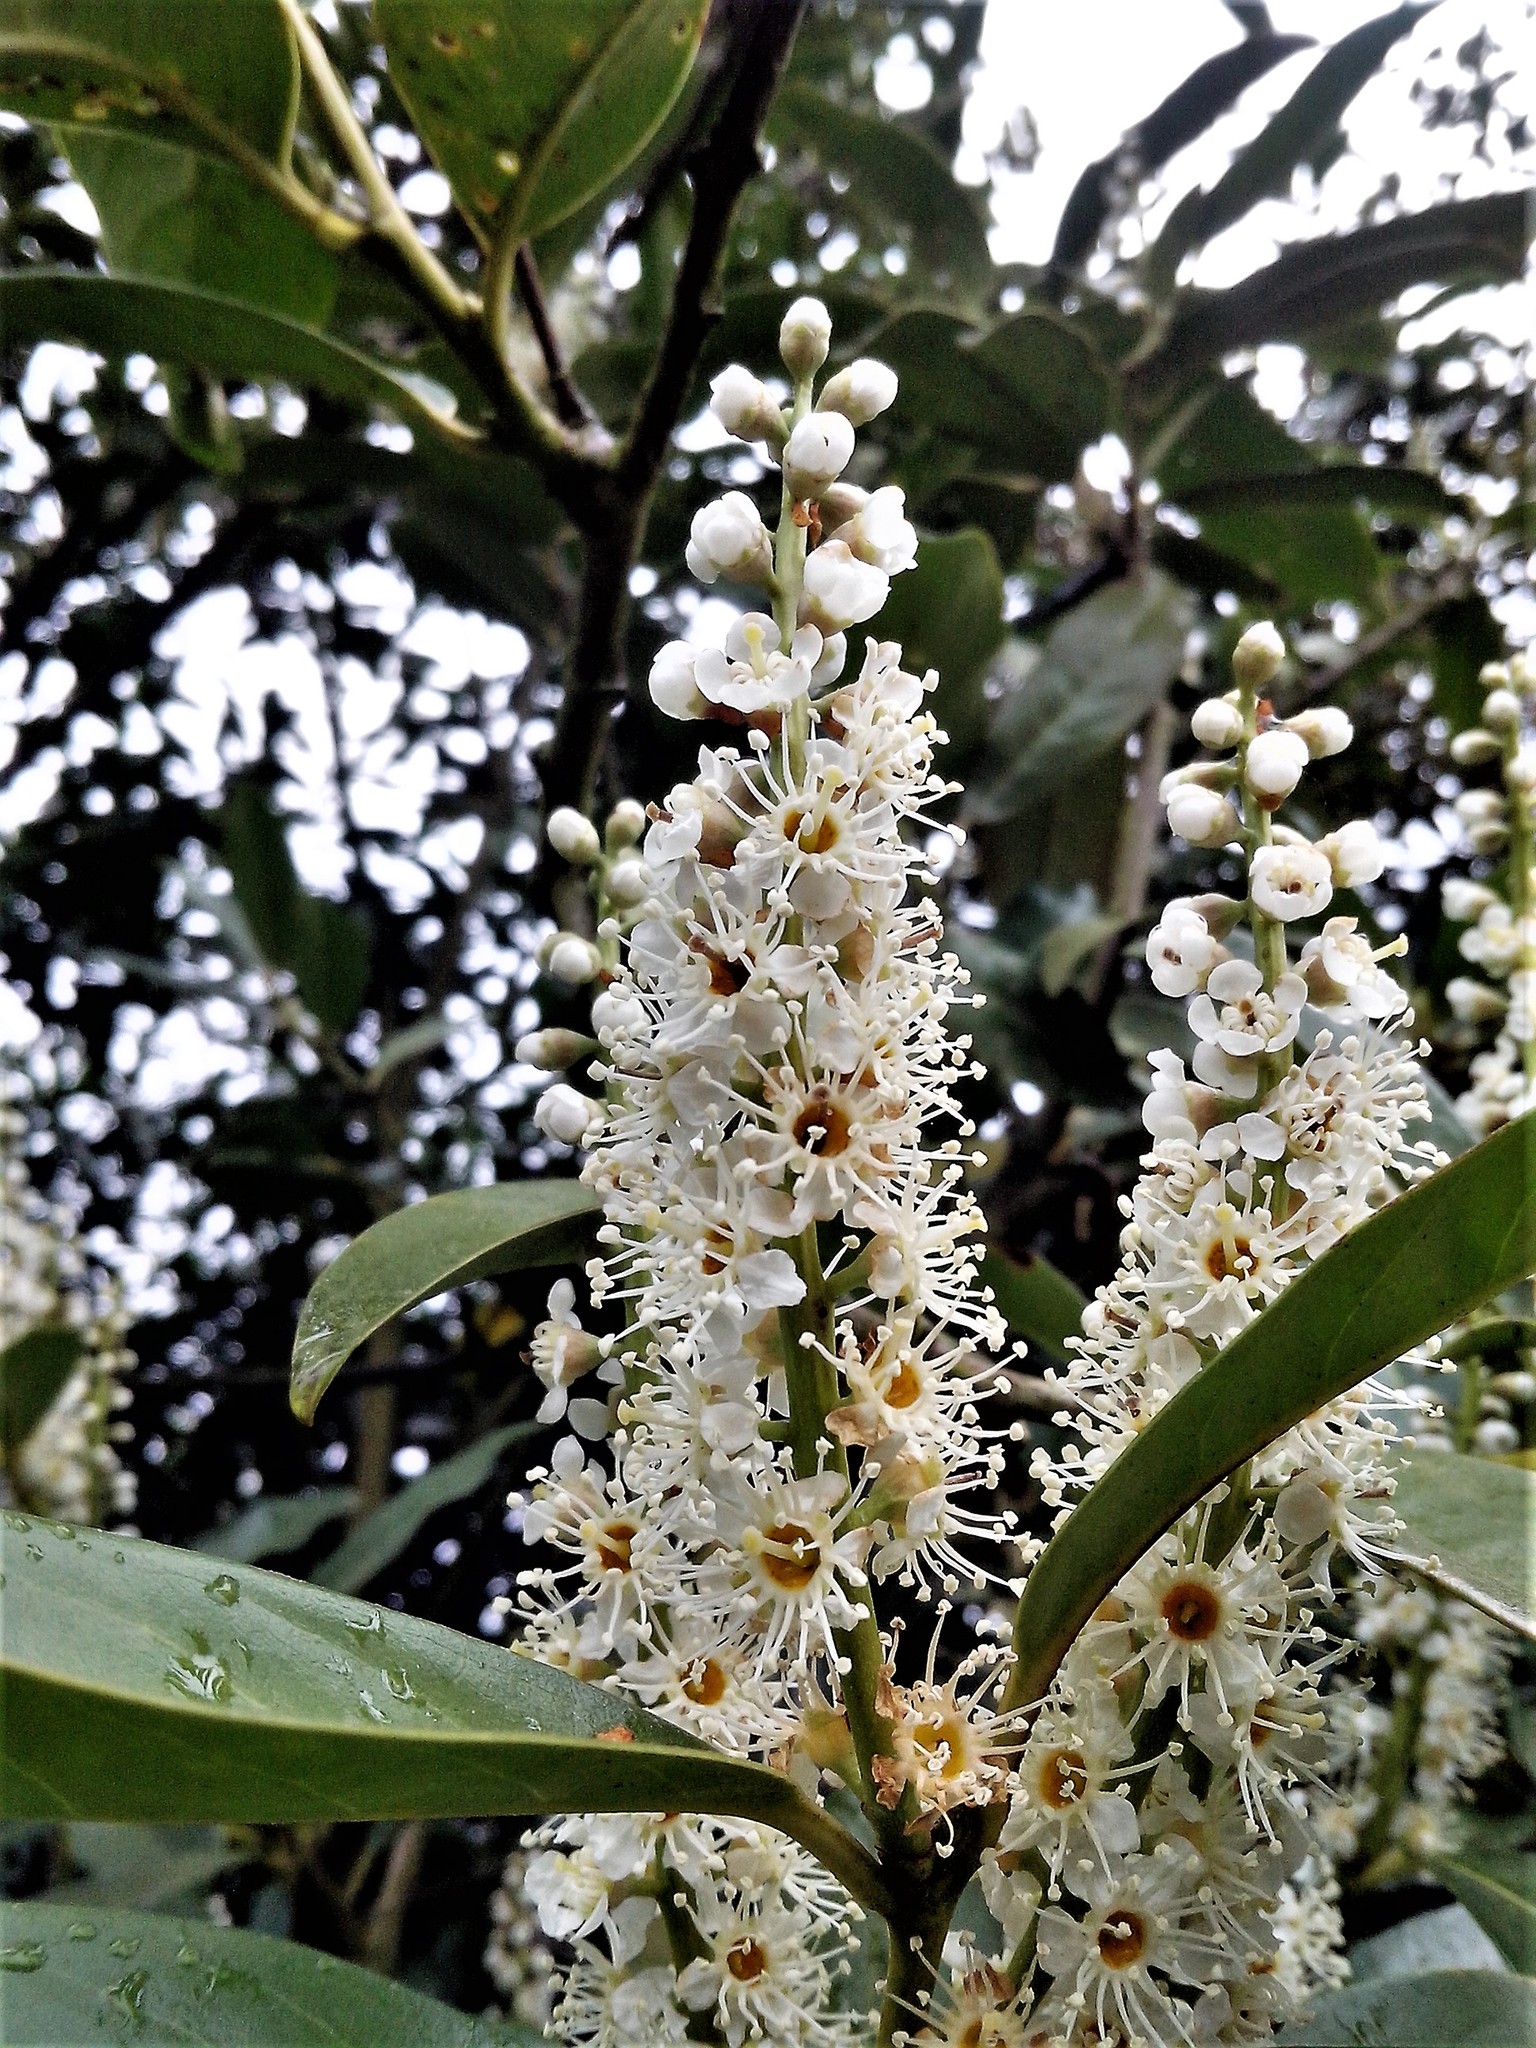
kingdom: Plantae
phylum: Tracheophyta
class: Magnoliopsida
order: Rosales
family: Rosaceae
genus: Prunus
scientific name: Prunus laurocerasus
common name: Cherry laurel
